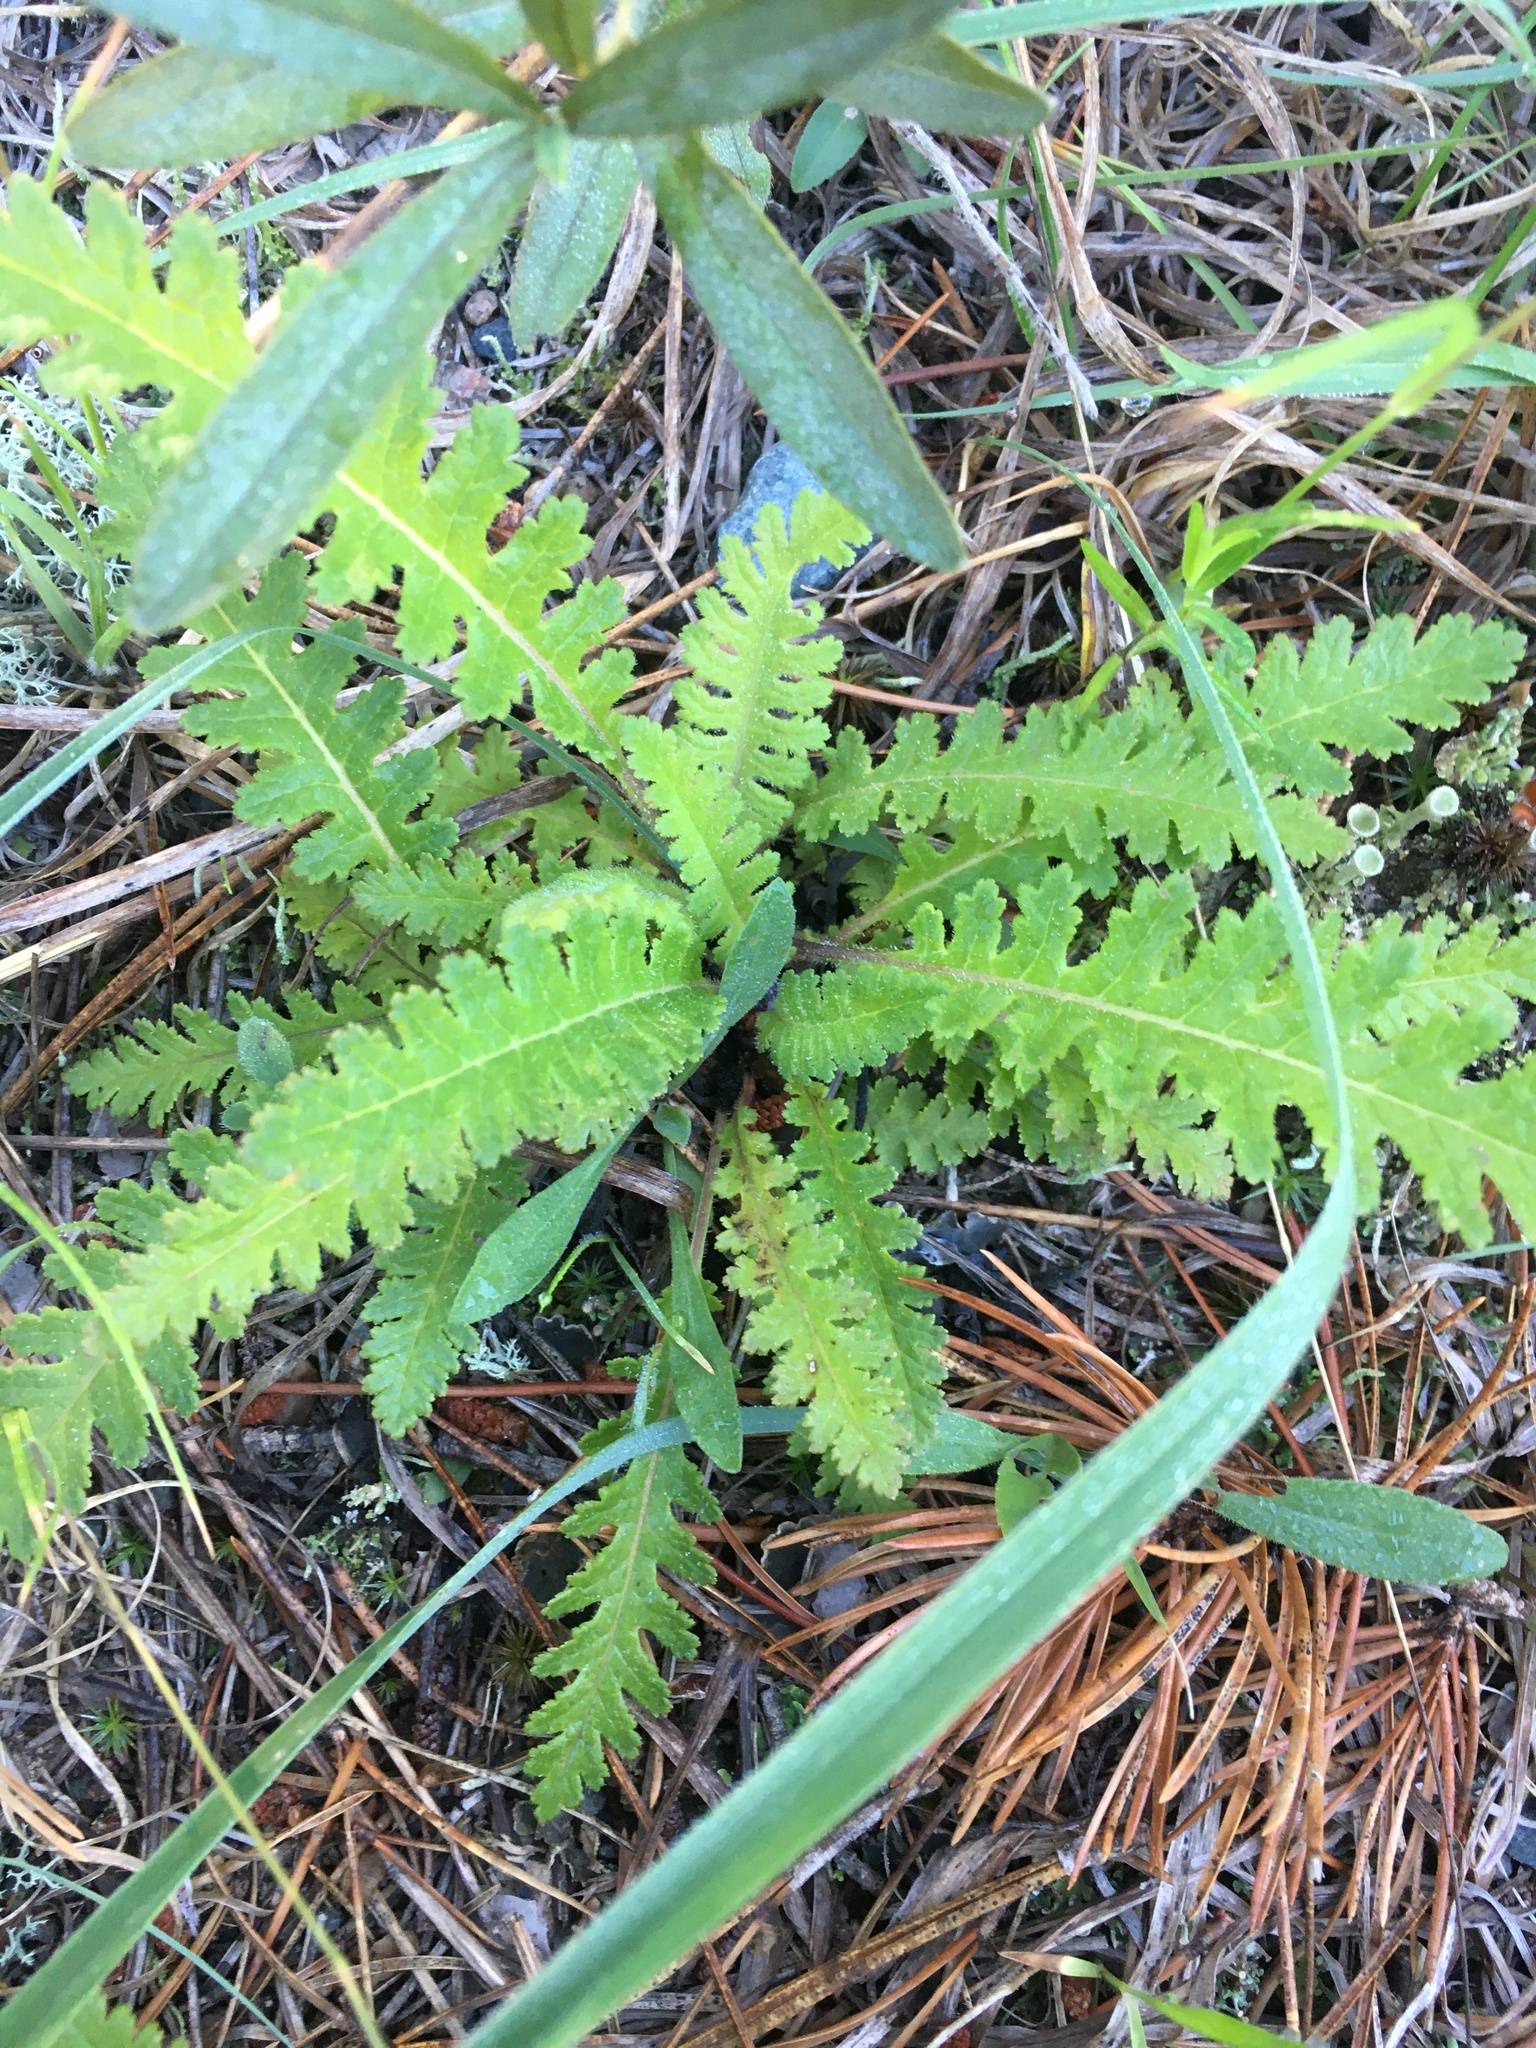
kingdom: Plantae
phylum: Tracheophyta
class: Magnoliopsida
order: Lamiales
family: Orobanchaceae
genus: Pedicularis
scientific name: Pedicularis canadensis
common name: Early lousewort
